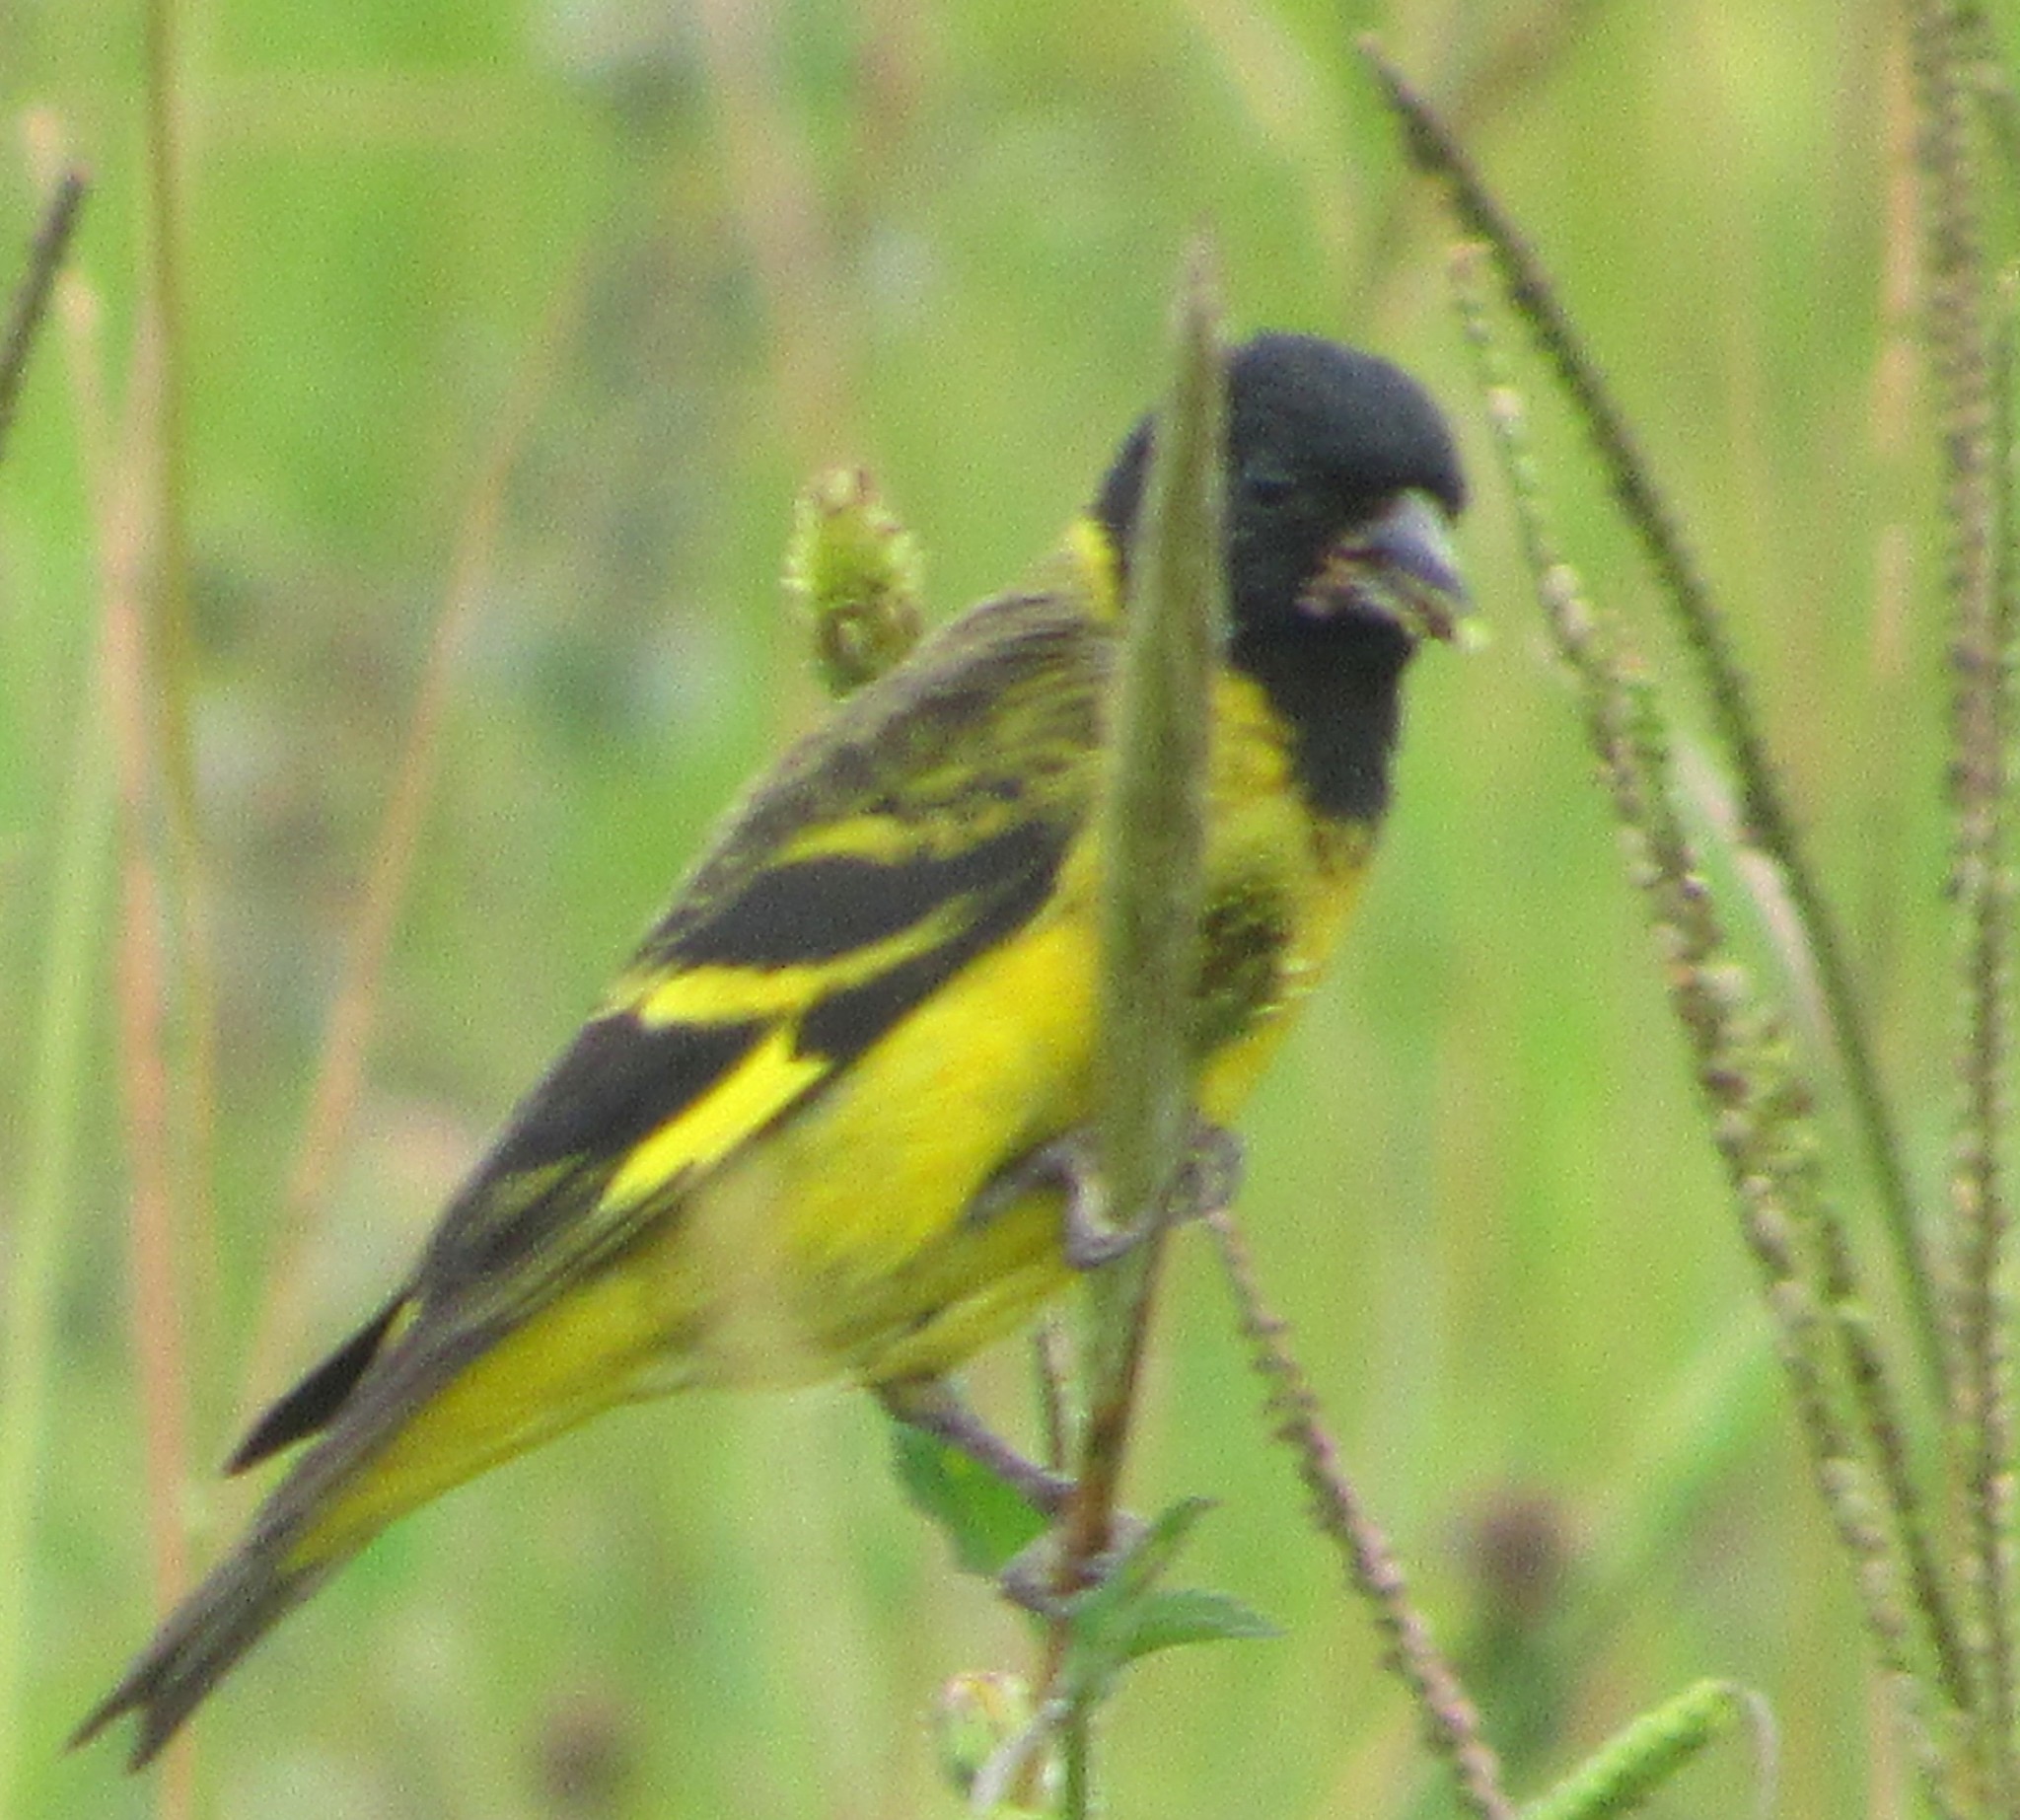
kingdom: Animalia
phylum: Chordata
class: Aves
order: Passeriformes
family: Fringillidae
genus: Spinus
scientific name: Spinus magellanicus
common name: Hooded siskin
